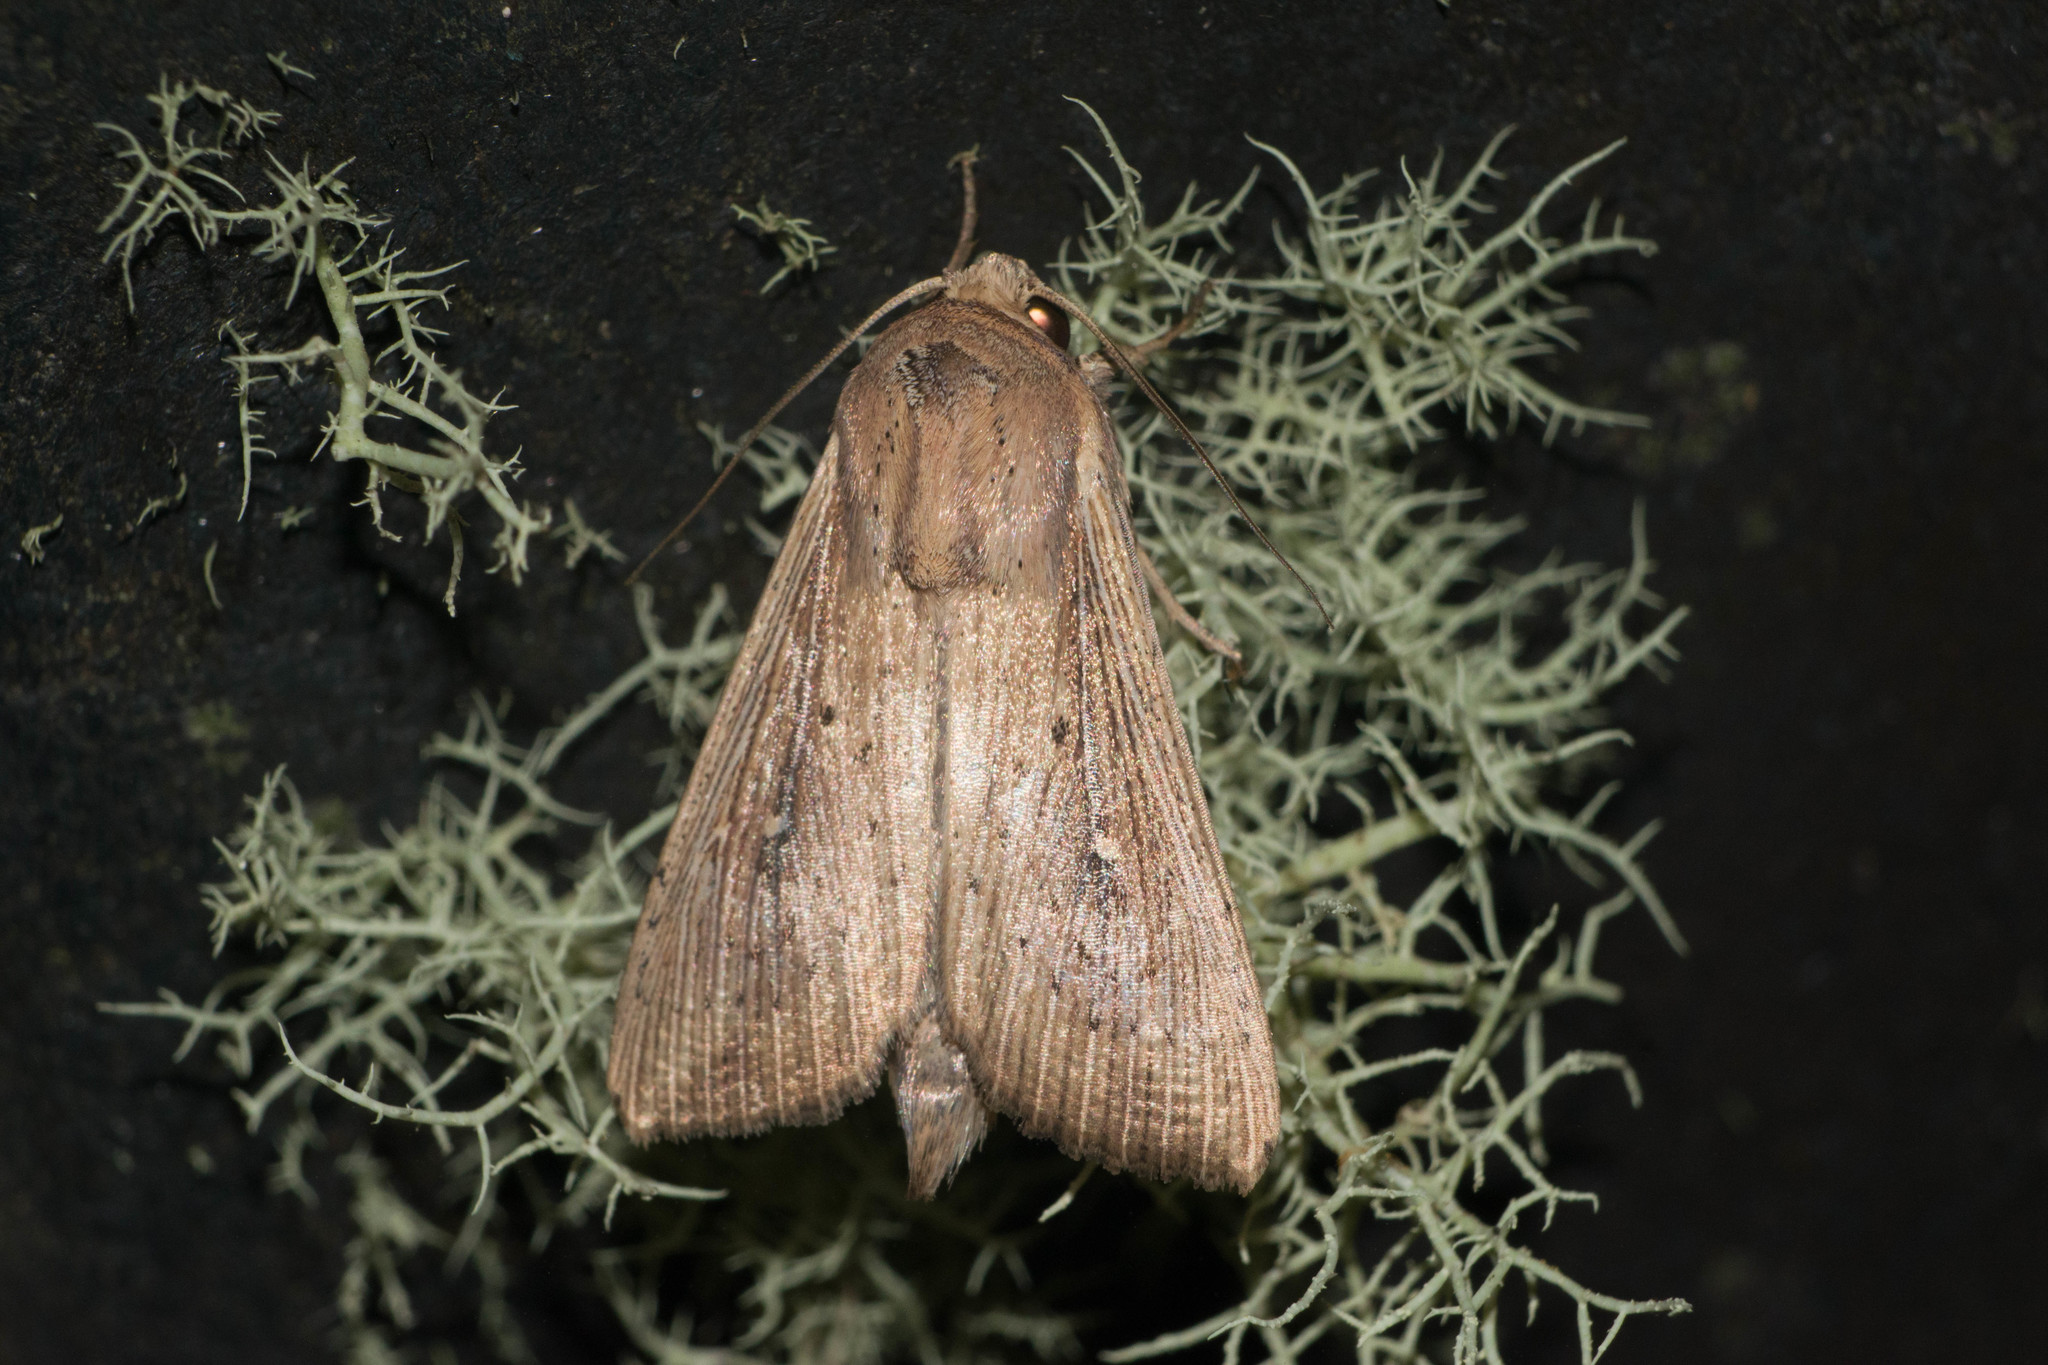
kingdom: Animalia
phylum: Arthropoda
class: Insecta
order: Lepidoptera
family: Noctuidae
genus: Leucania
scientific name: Leucania striata
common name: Moth
